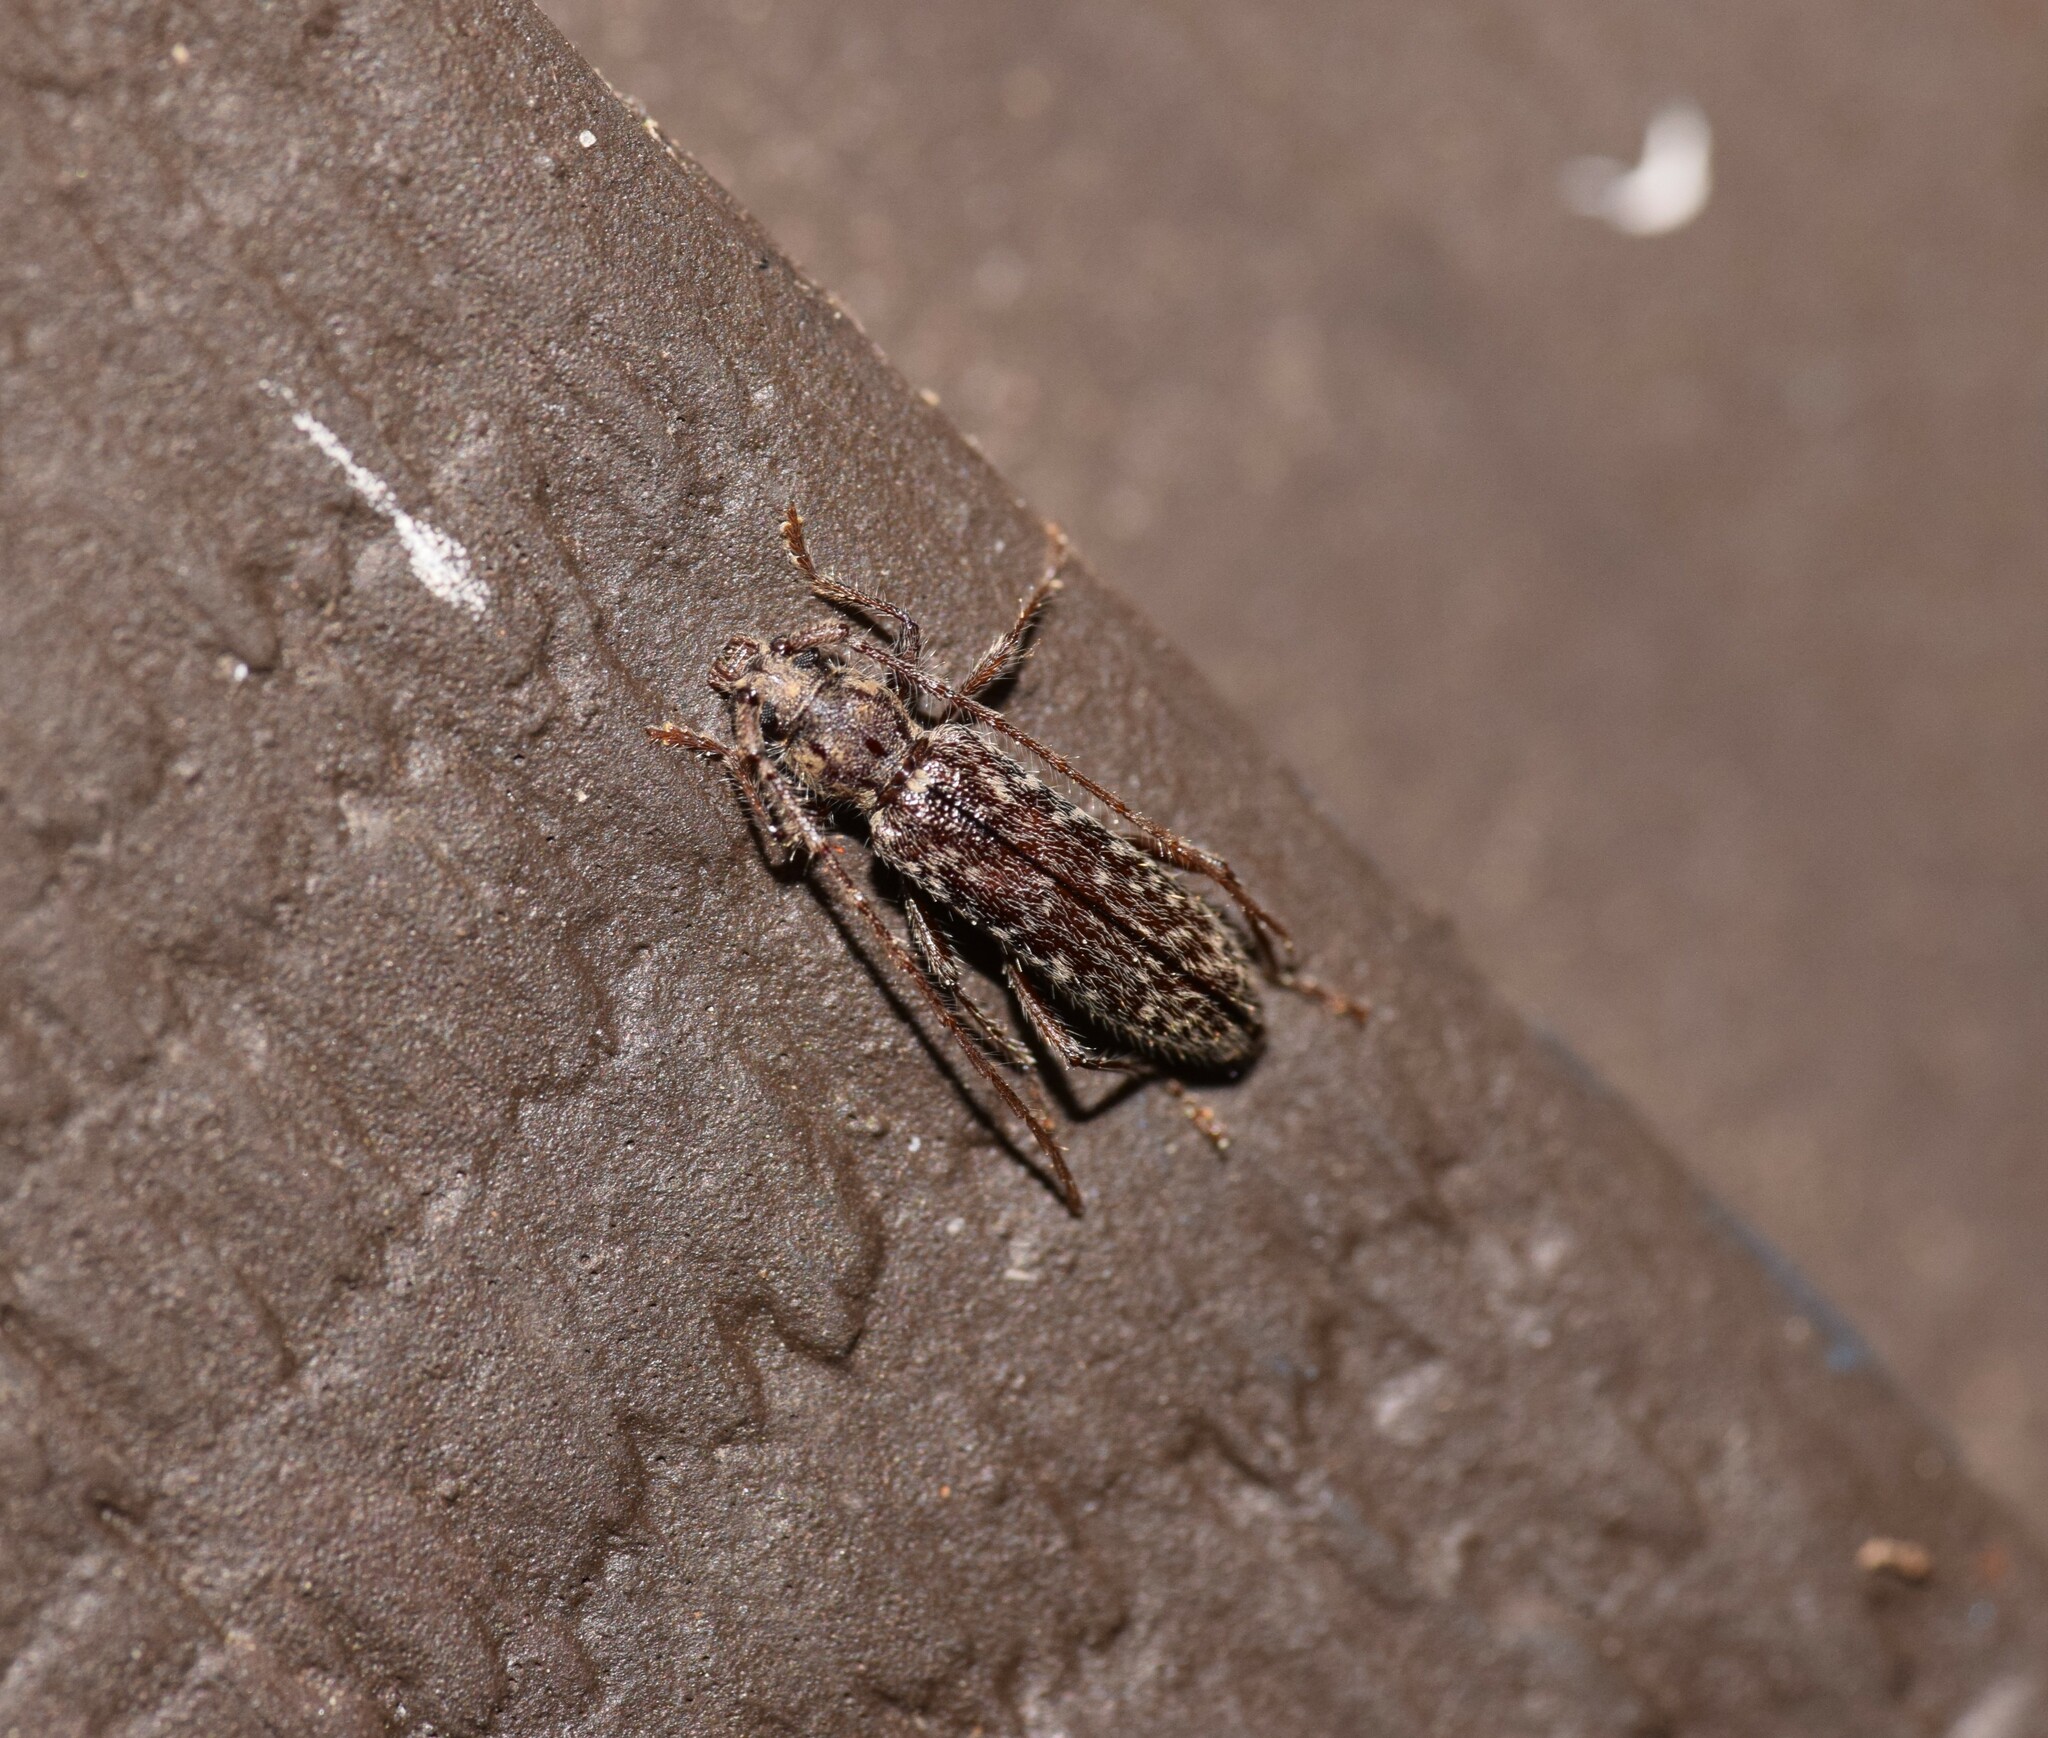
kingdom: Animalia
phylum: Arthropoda
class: Insecta
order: Coleoptera
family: Cerambycidae
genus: Anelaphus
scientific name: Anelaphus pumilus
